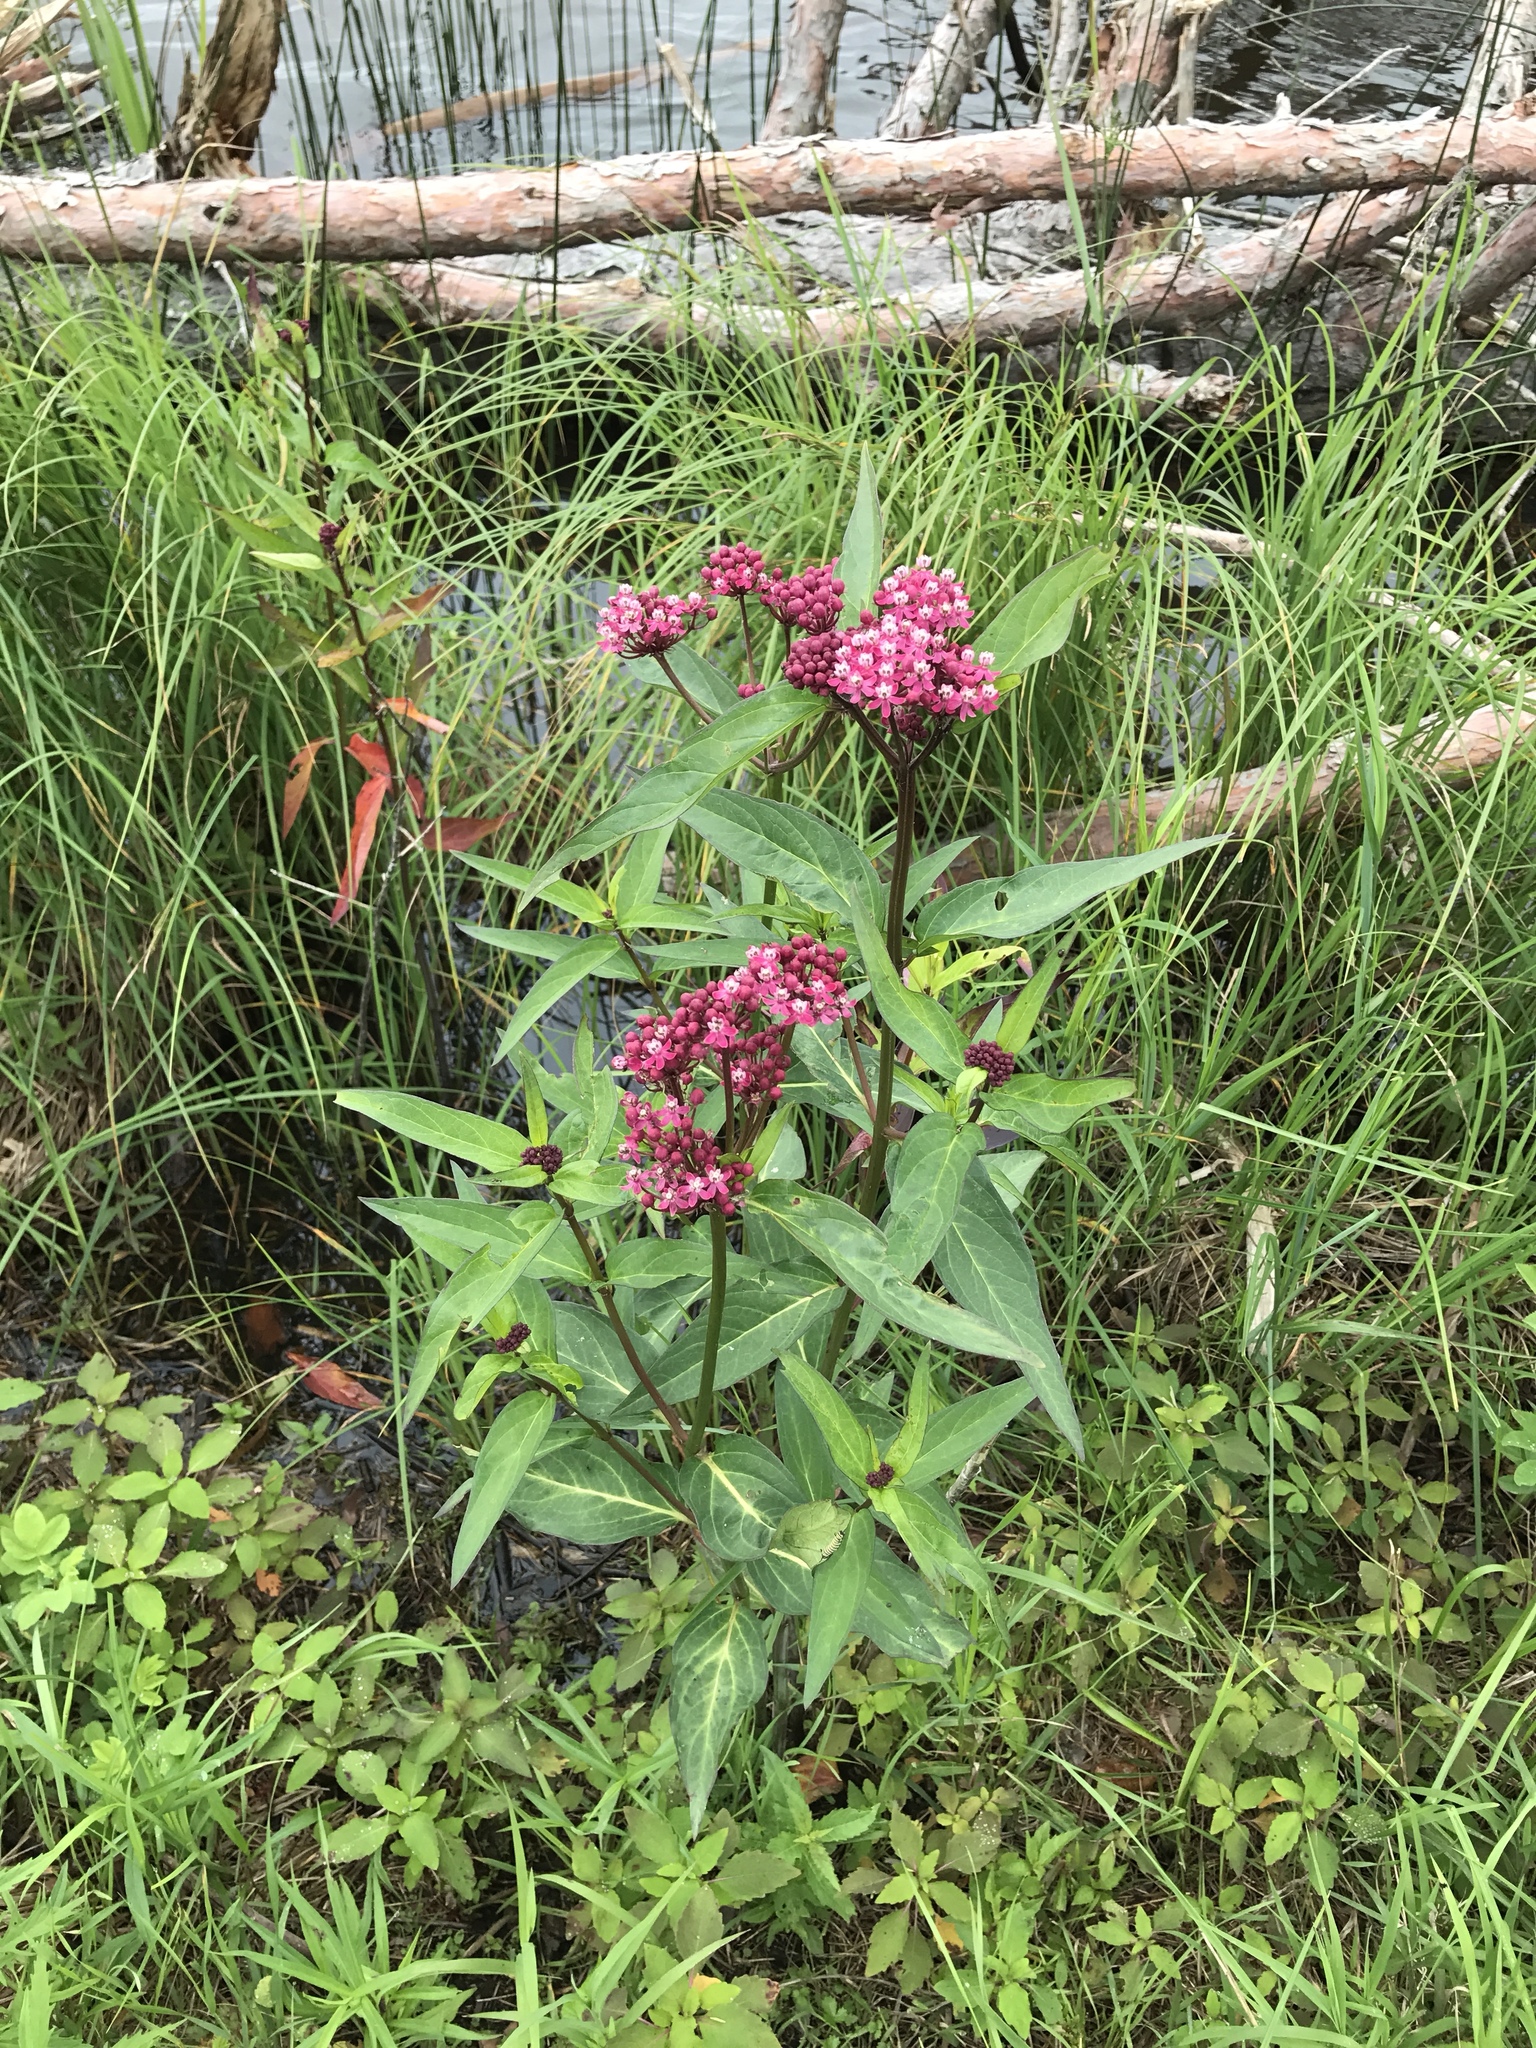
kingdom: Plantae
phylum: Tracheophyta
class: Magnoliopsida
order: Gentianales
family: Apocynaceae
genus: Asclepias
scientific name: Asclepias incarnata
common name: Swamp milkweed
